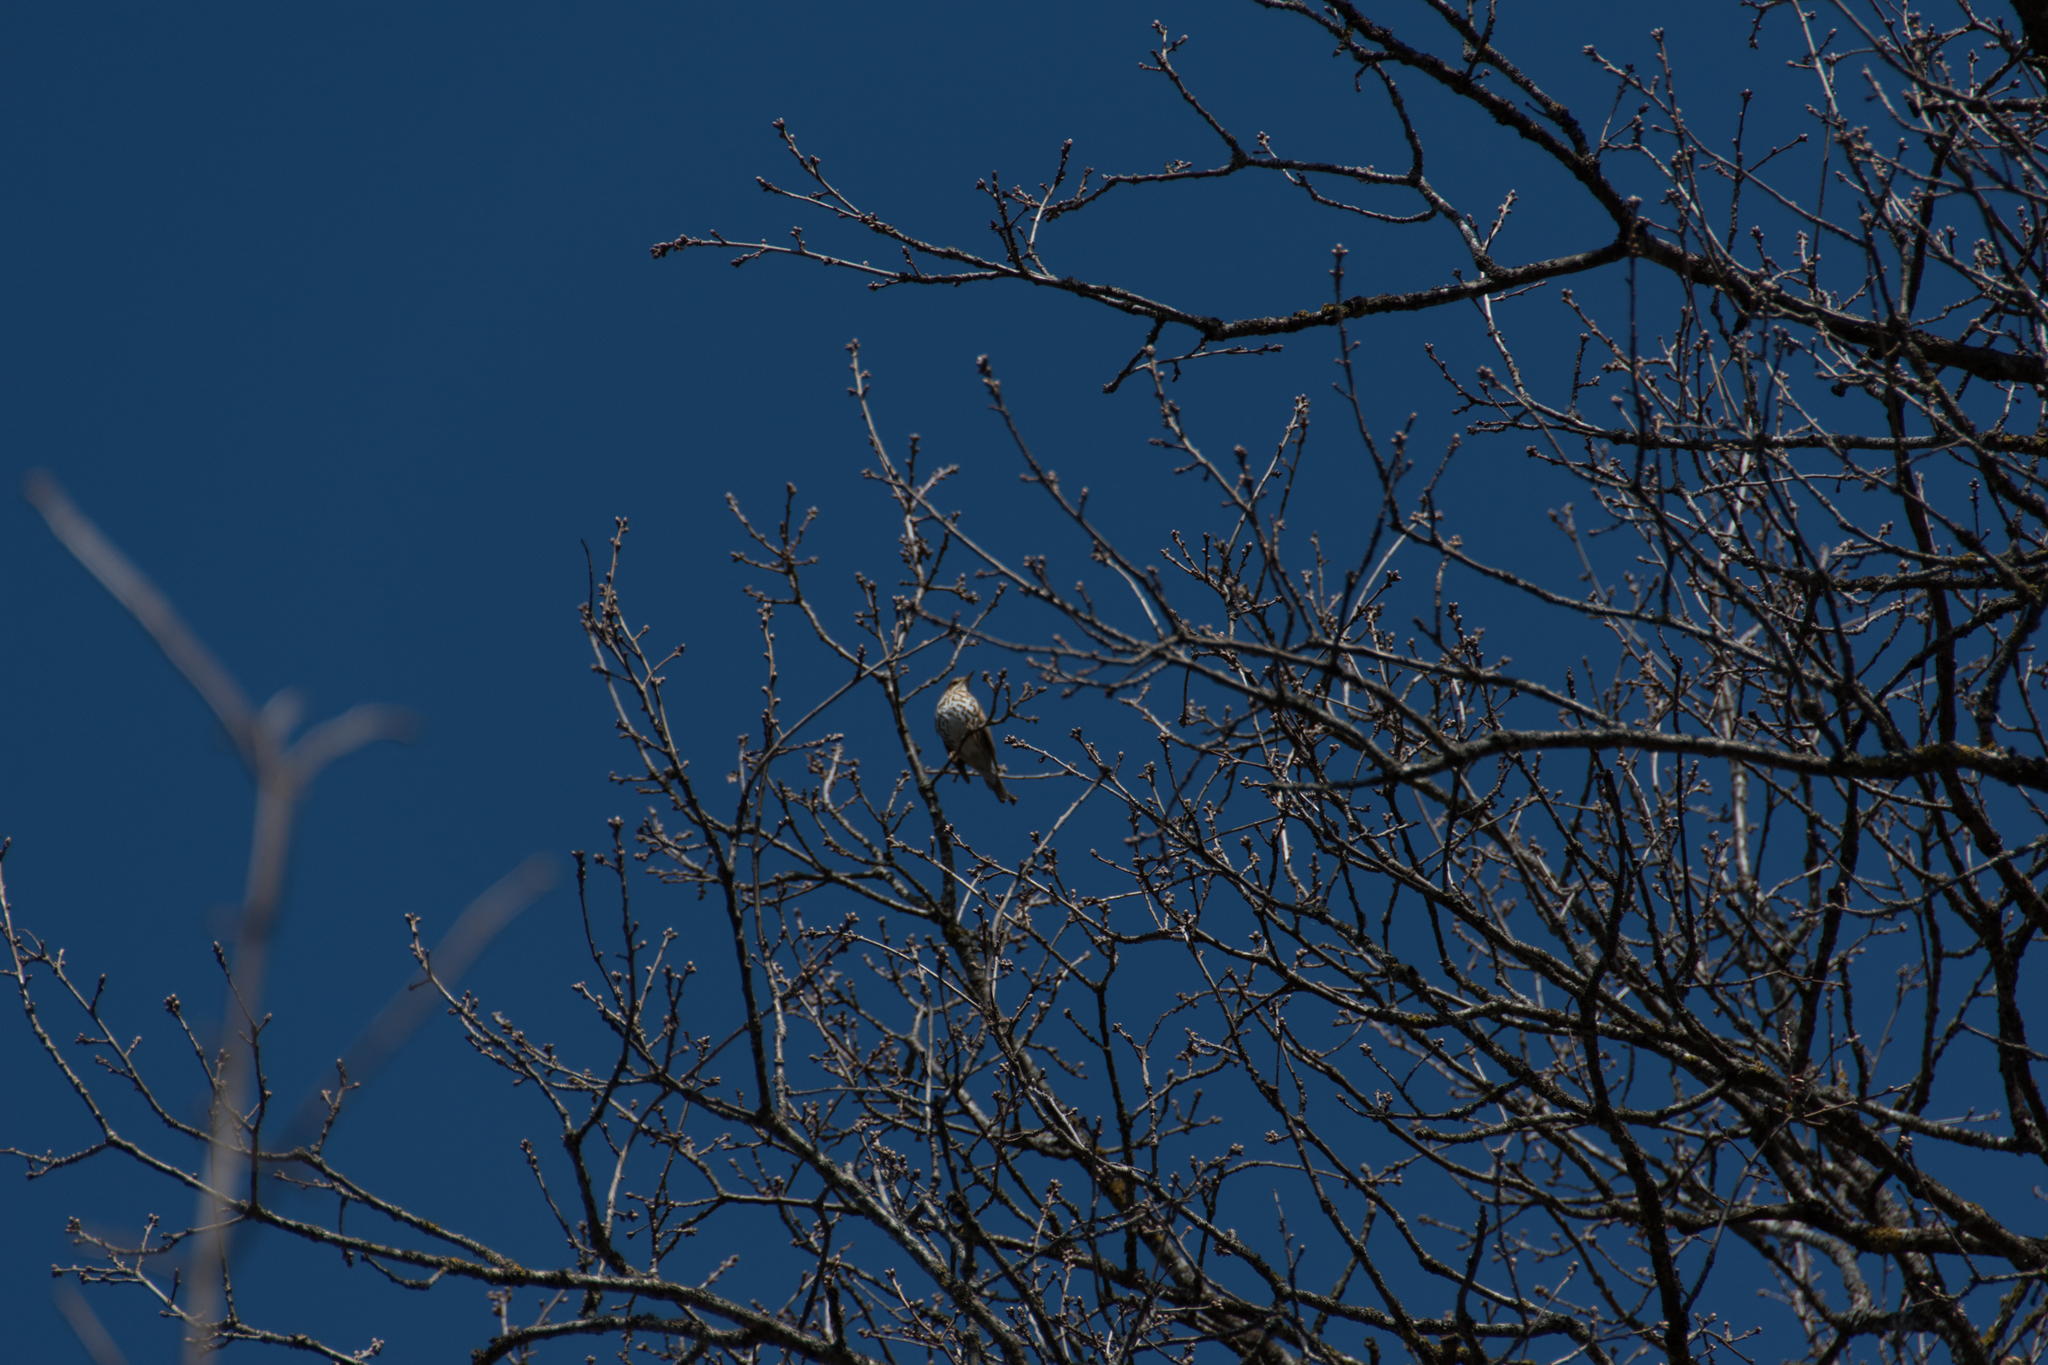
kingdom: Animalia
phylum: Chordata
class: Aves
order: Passeriformes
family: Turdidae
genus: Turdus
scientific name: Turdus philomelos
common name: Song thrush
